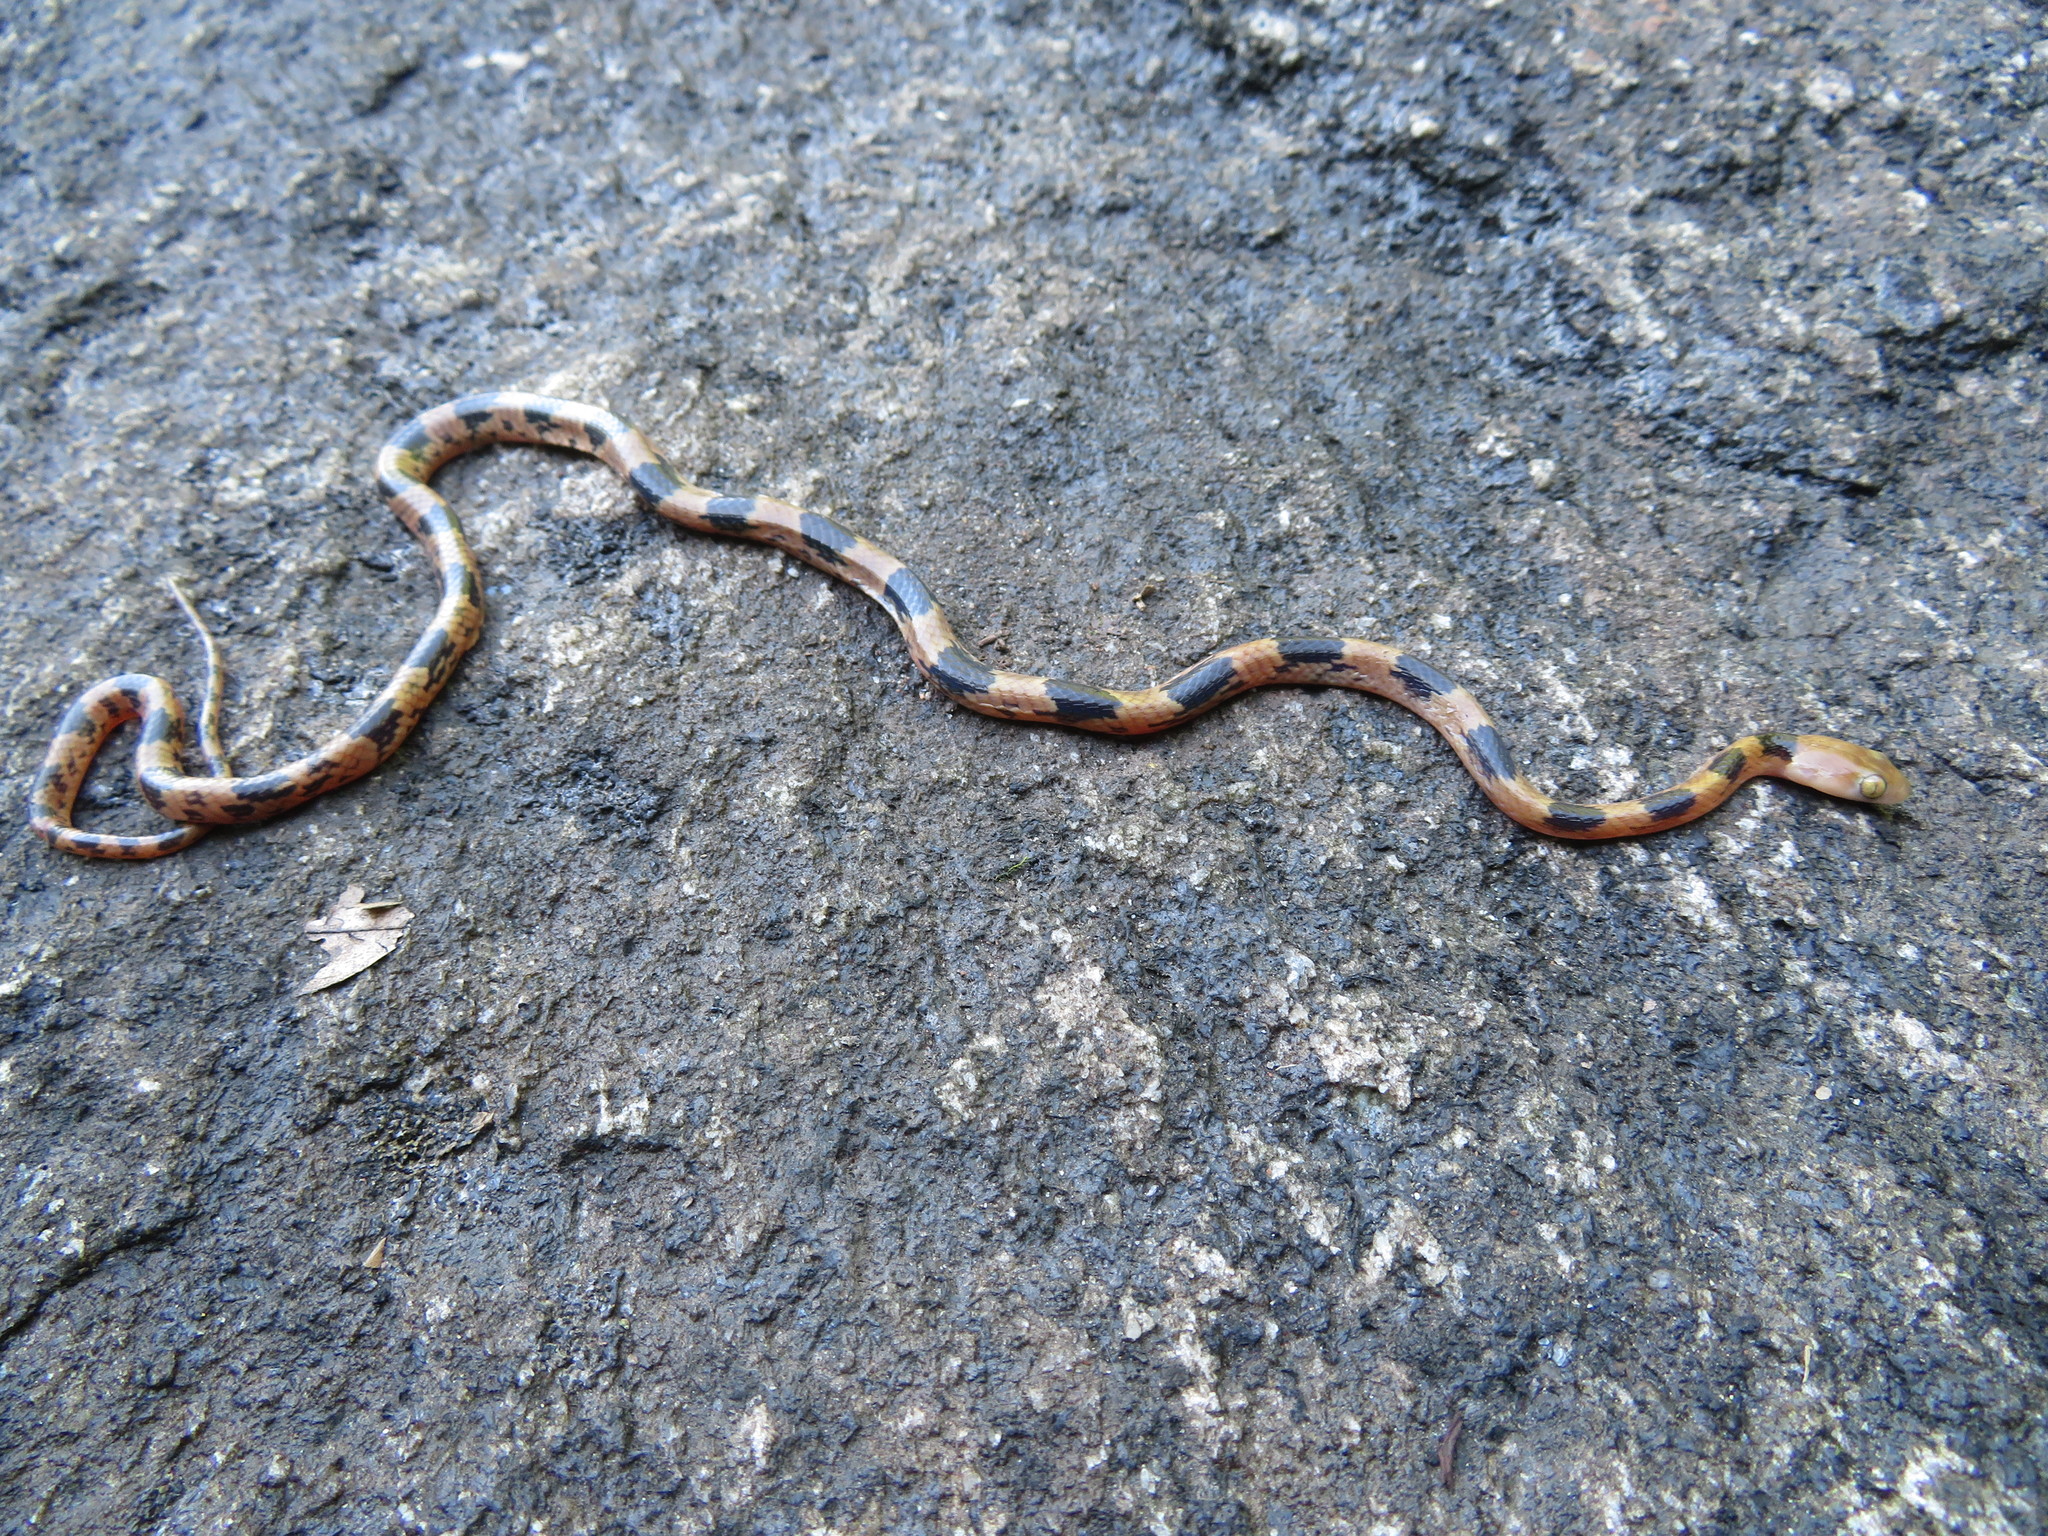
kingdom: Animalia
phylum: Chordata
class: Squamata
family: Colubridae
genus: Telescopus
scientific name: Telescopus semiannulatus
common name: Common tiger snake
